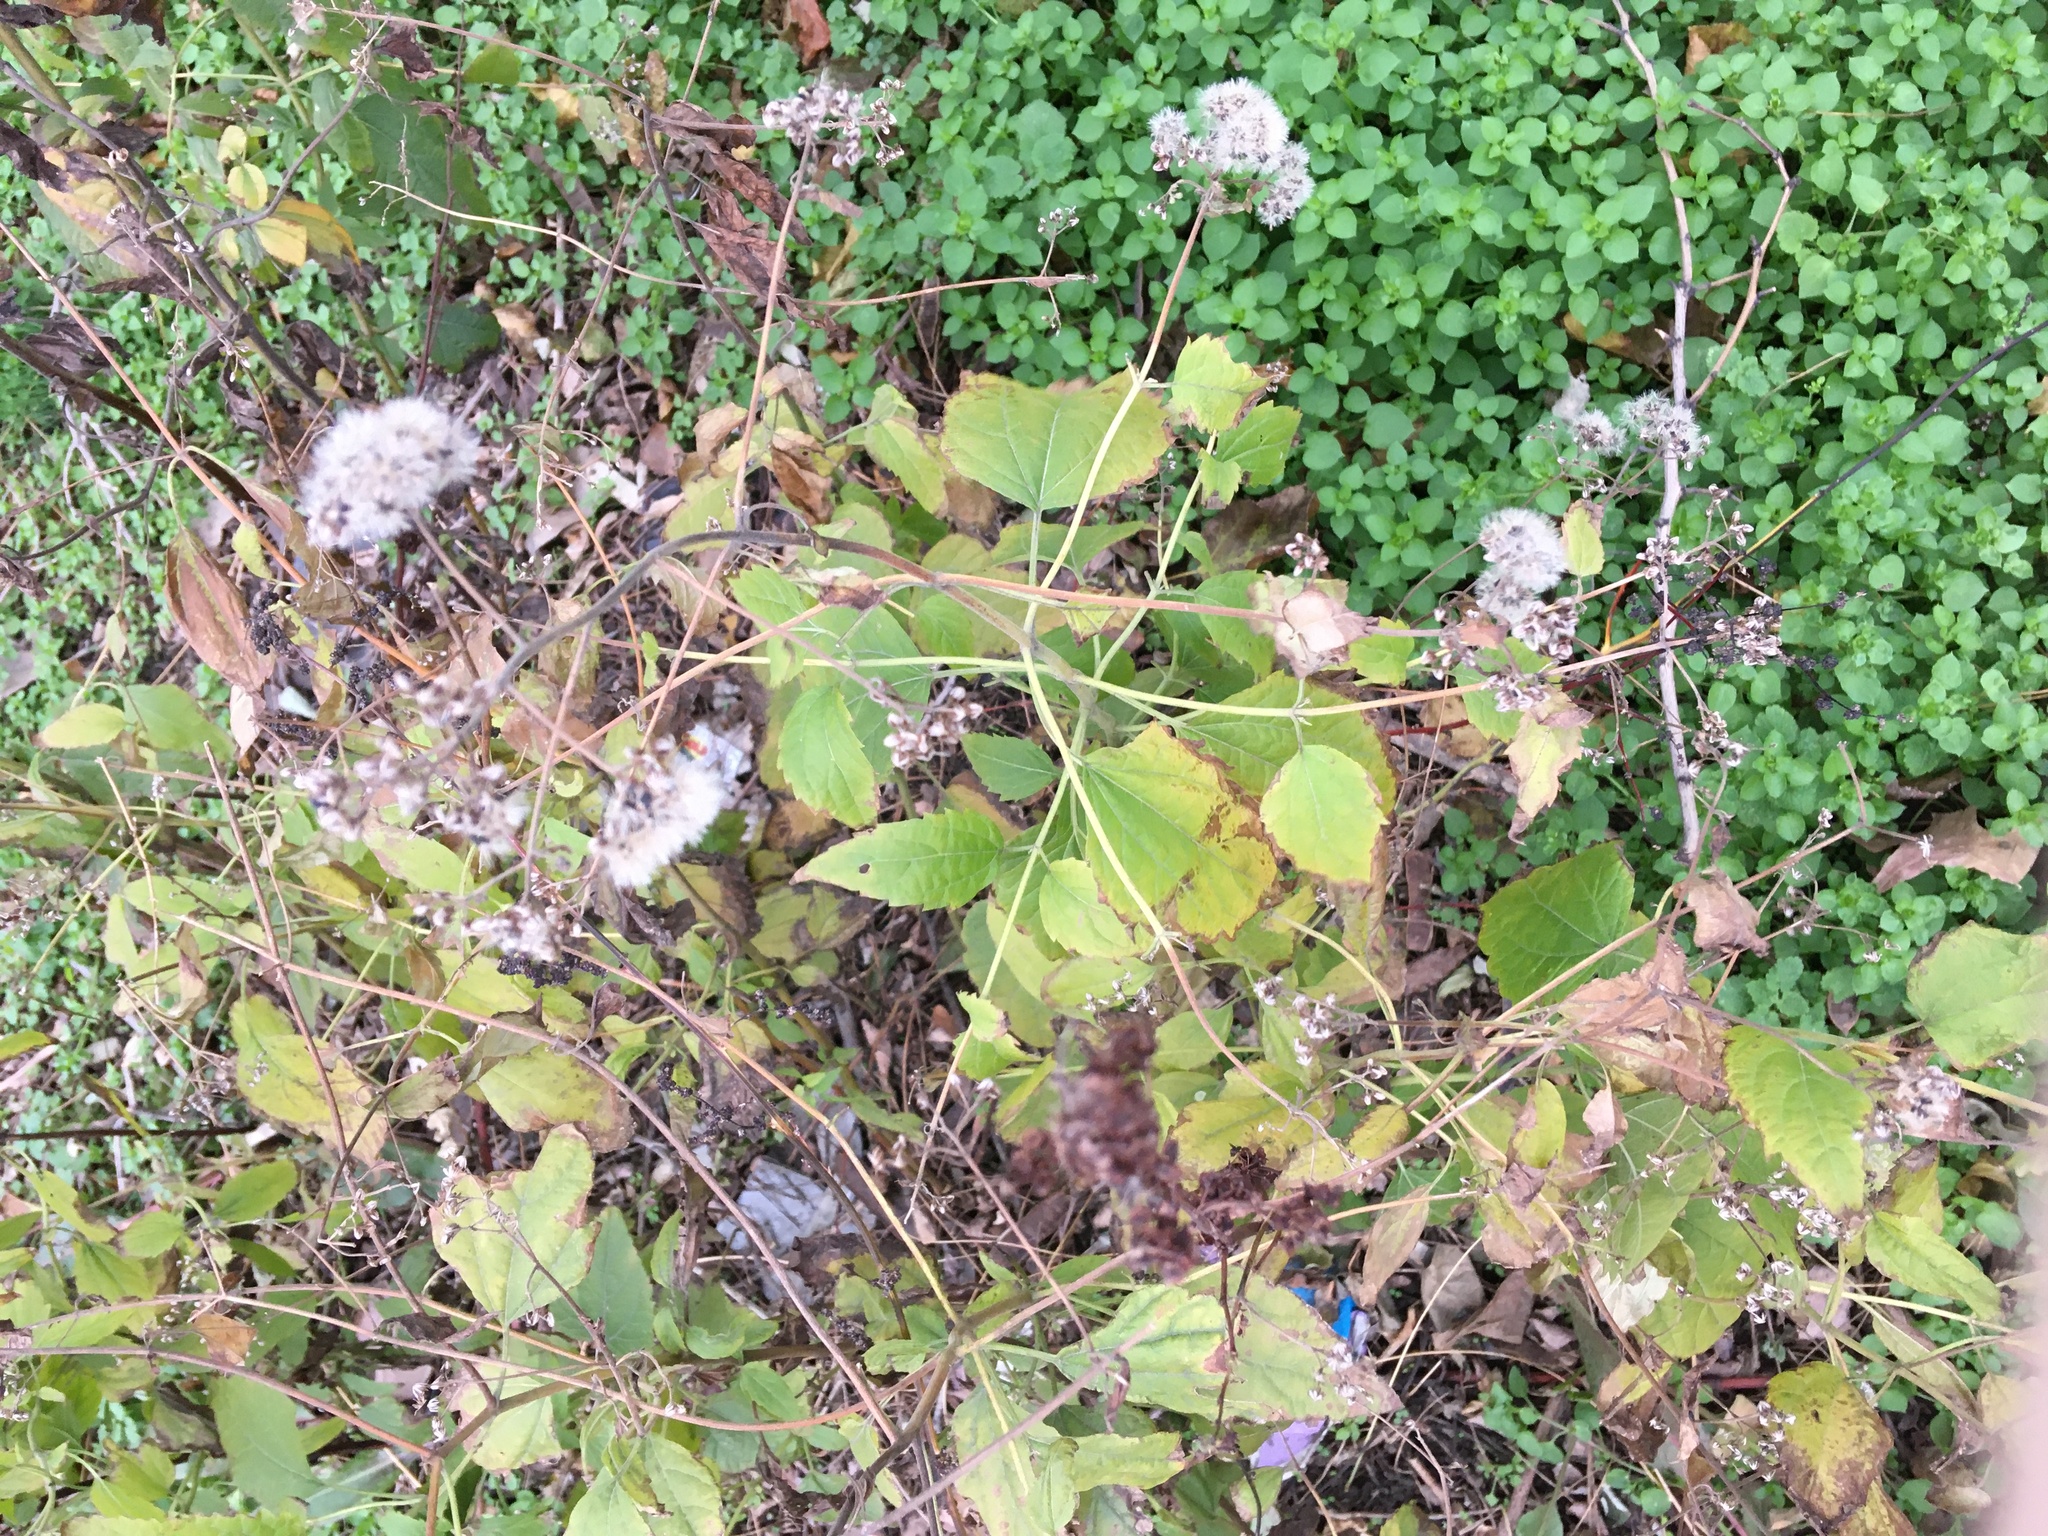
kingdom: Plantae
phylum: Tracheophyta
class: Magnoliopsida
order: Asterales
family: Asteraceae
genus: Ageratina
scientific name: Ageratina altissima
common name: White snakeroot
